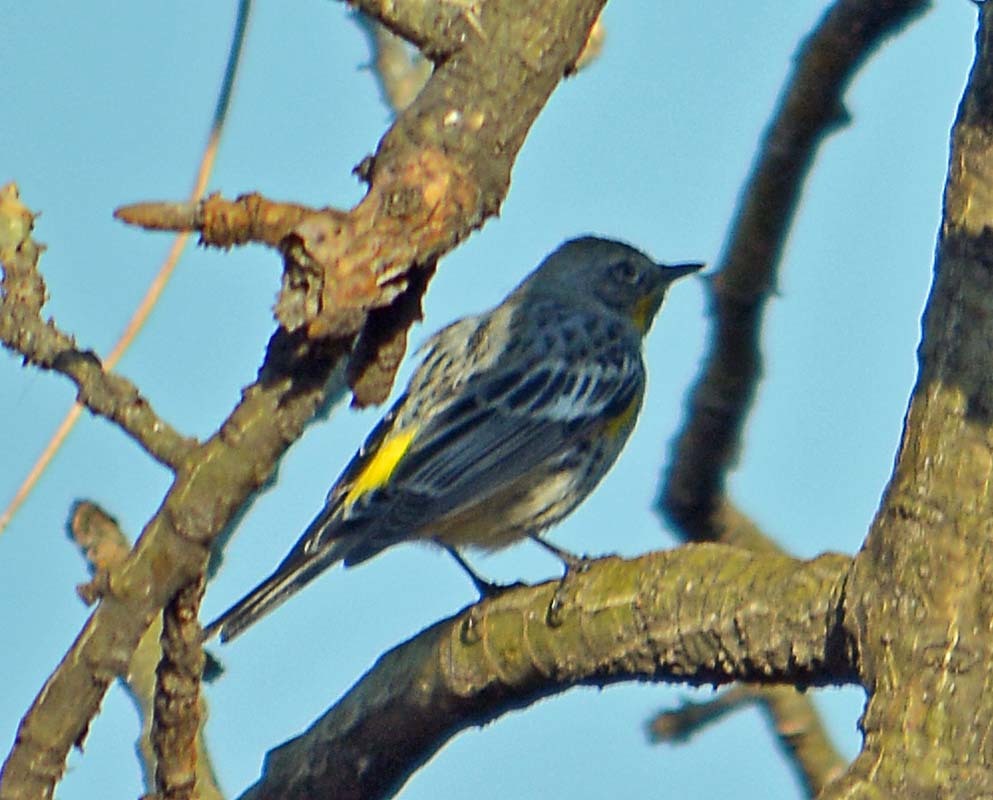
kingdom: Animalia
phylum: Chordata
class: Aves
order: Passeriformes
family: Parulidae
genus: Setophaga
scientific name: Setophaga coronata
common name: Myrtle warbler
